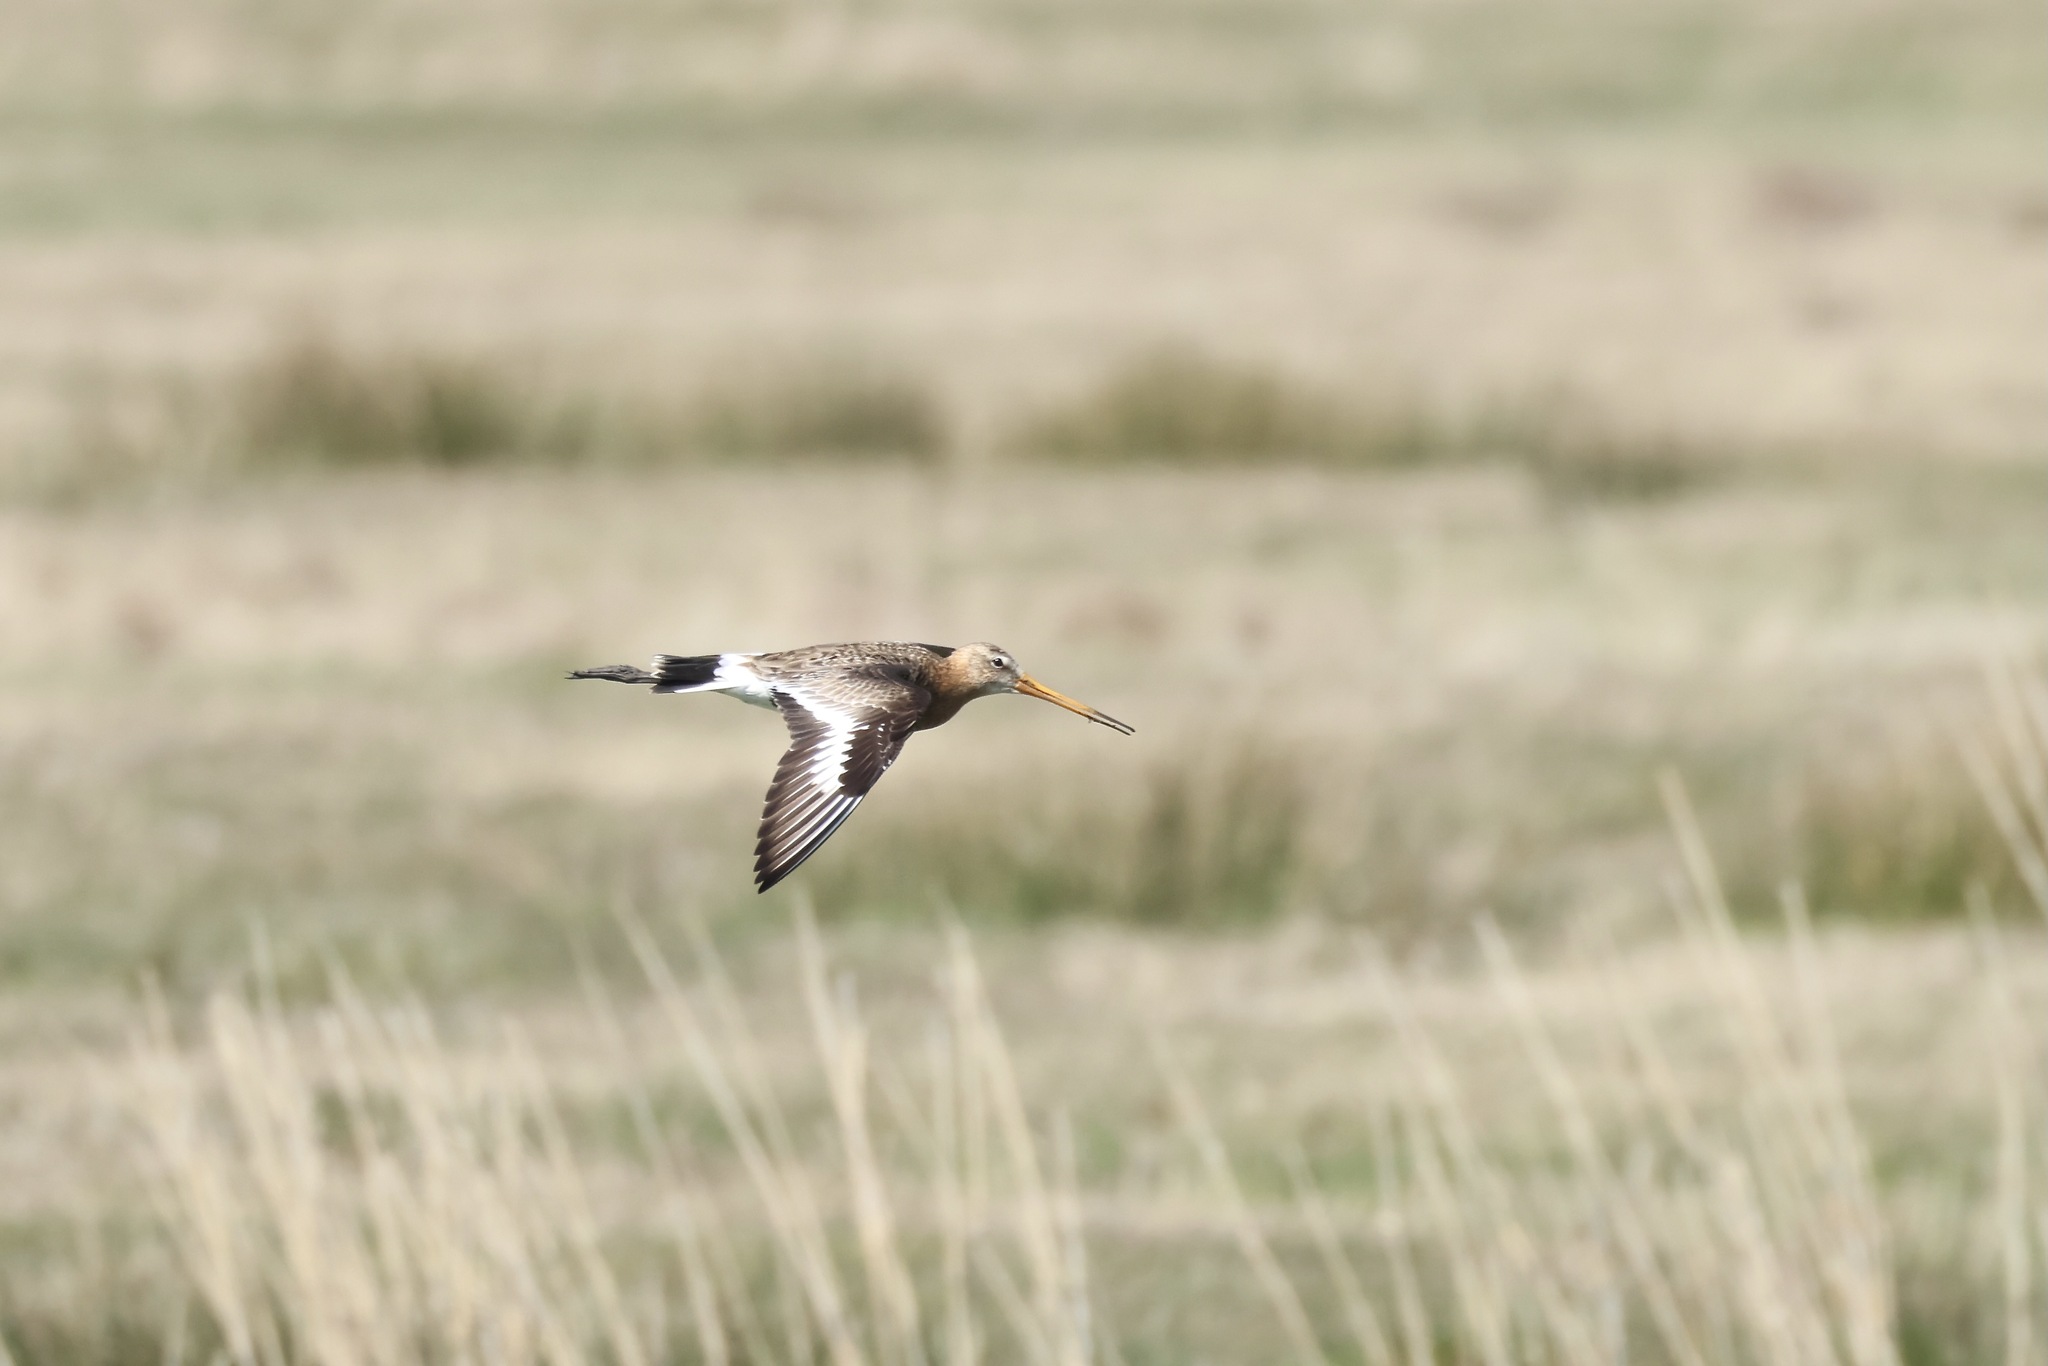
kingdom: Animalia
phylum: Chordata
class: Aves
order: Charadriiformes
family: Scolopacidae
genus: Limosa
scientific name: Limosa limosa
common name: Black-tailed godwit
